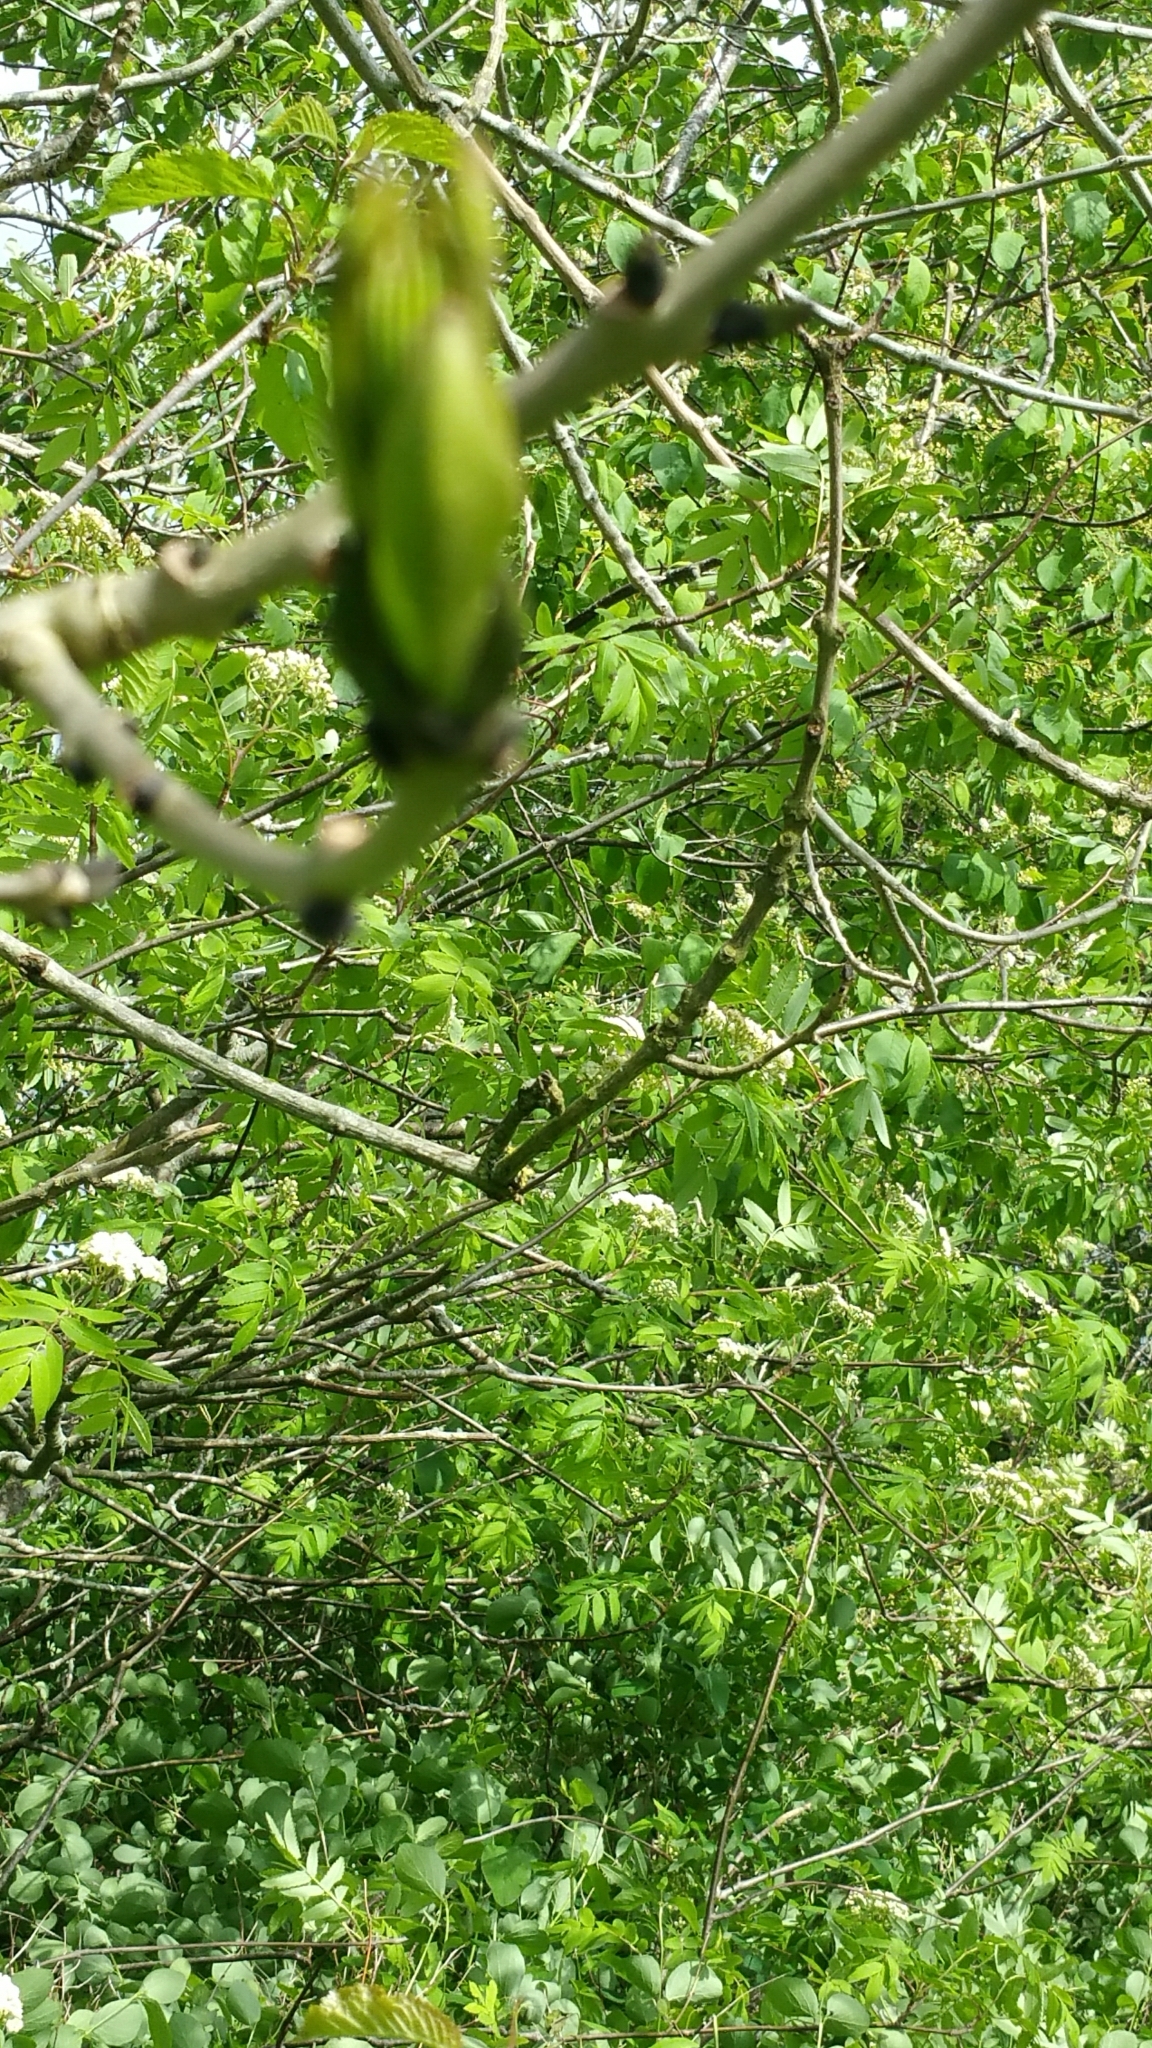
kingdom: Plantae
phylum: Tracheophyta
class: Magnoliopsida
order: Lamiales
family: Oleaceae
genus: Fraxinus
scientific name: Fraxinus excelsior
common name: European ash
